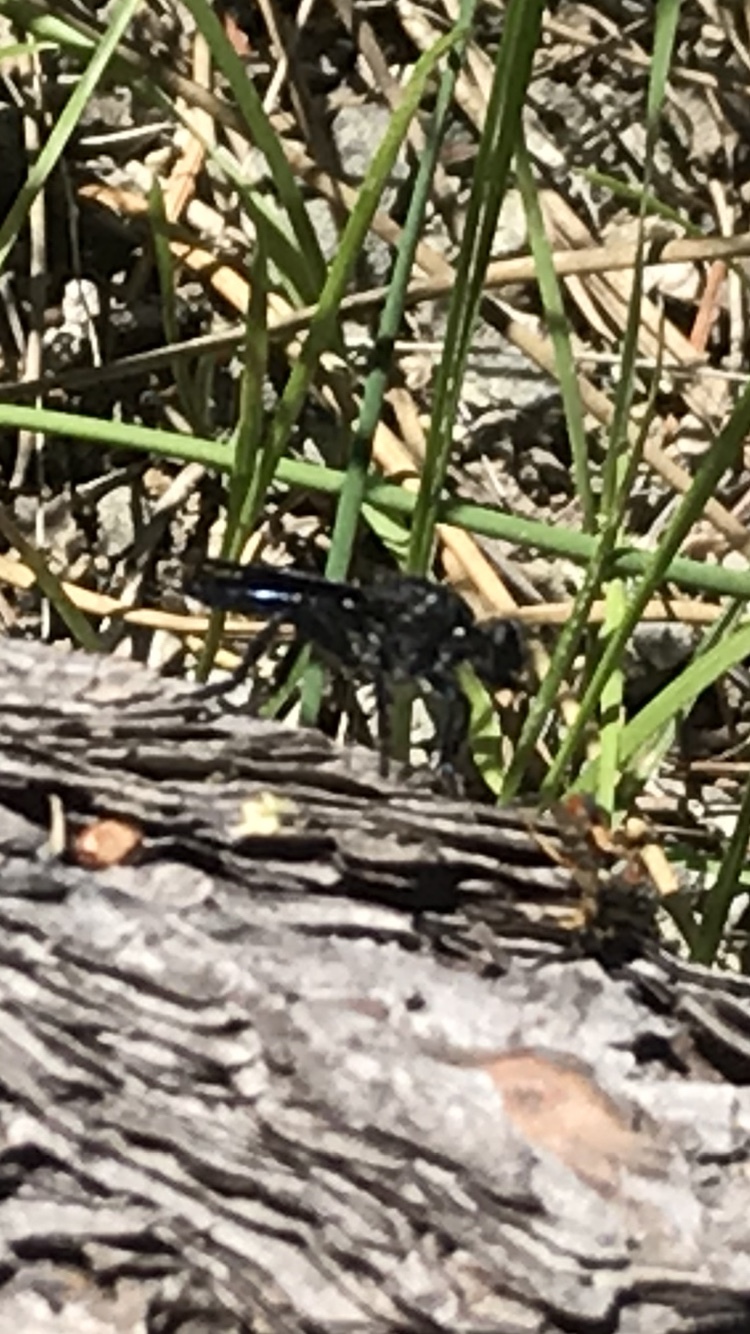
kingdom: Animalia
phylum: Arthropoda
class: Insecta
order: Diptera
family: Asilidae
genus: Pogonosoma
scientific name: Pogonosoma ridingsi
